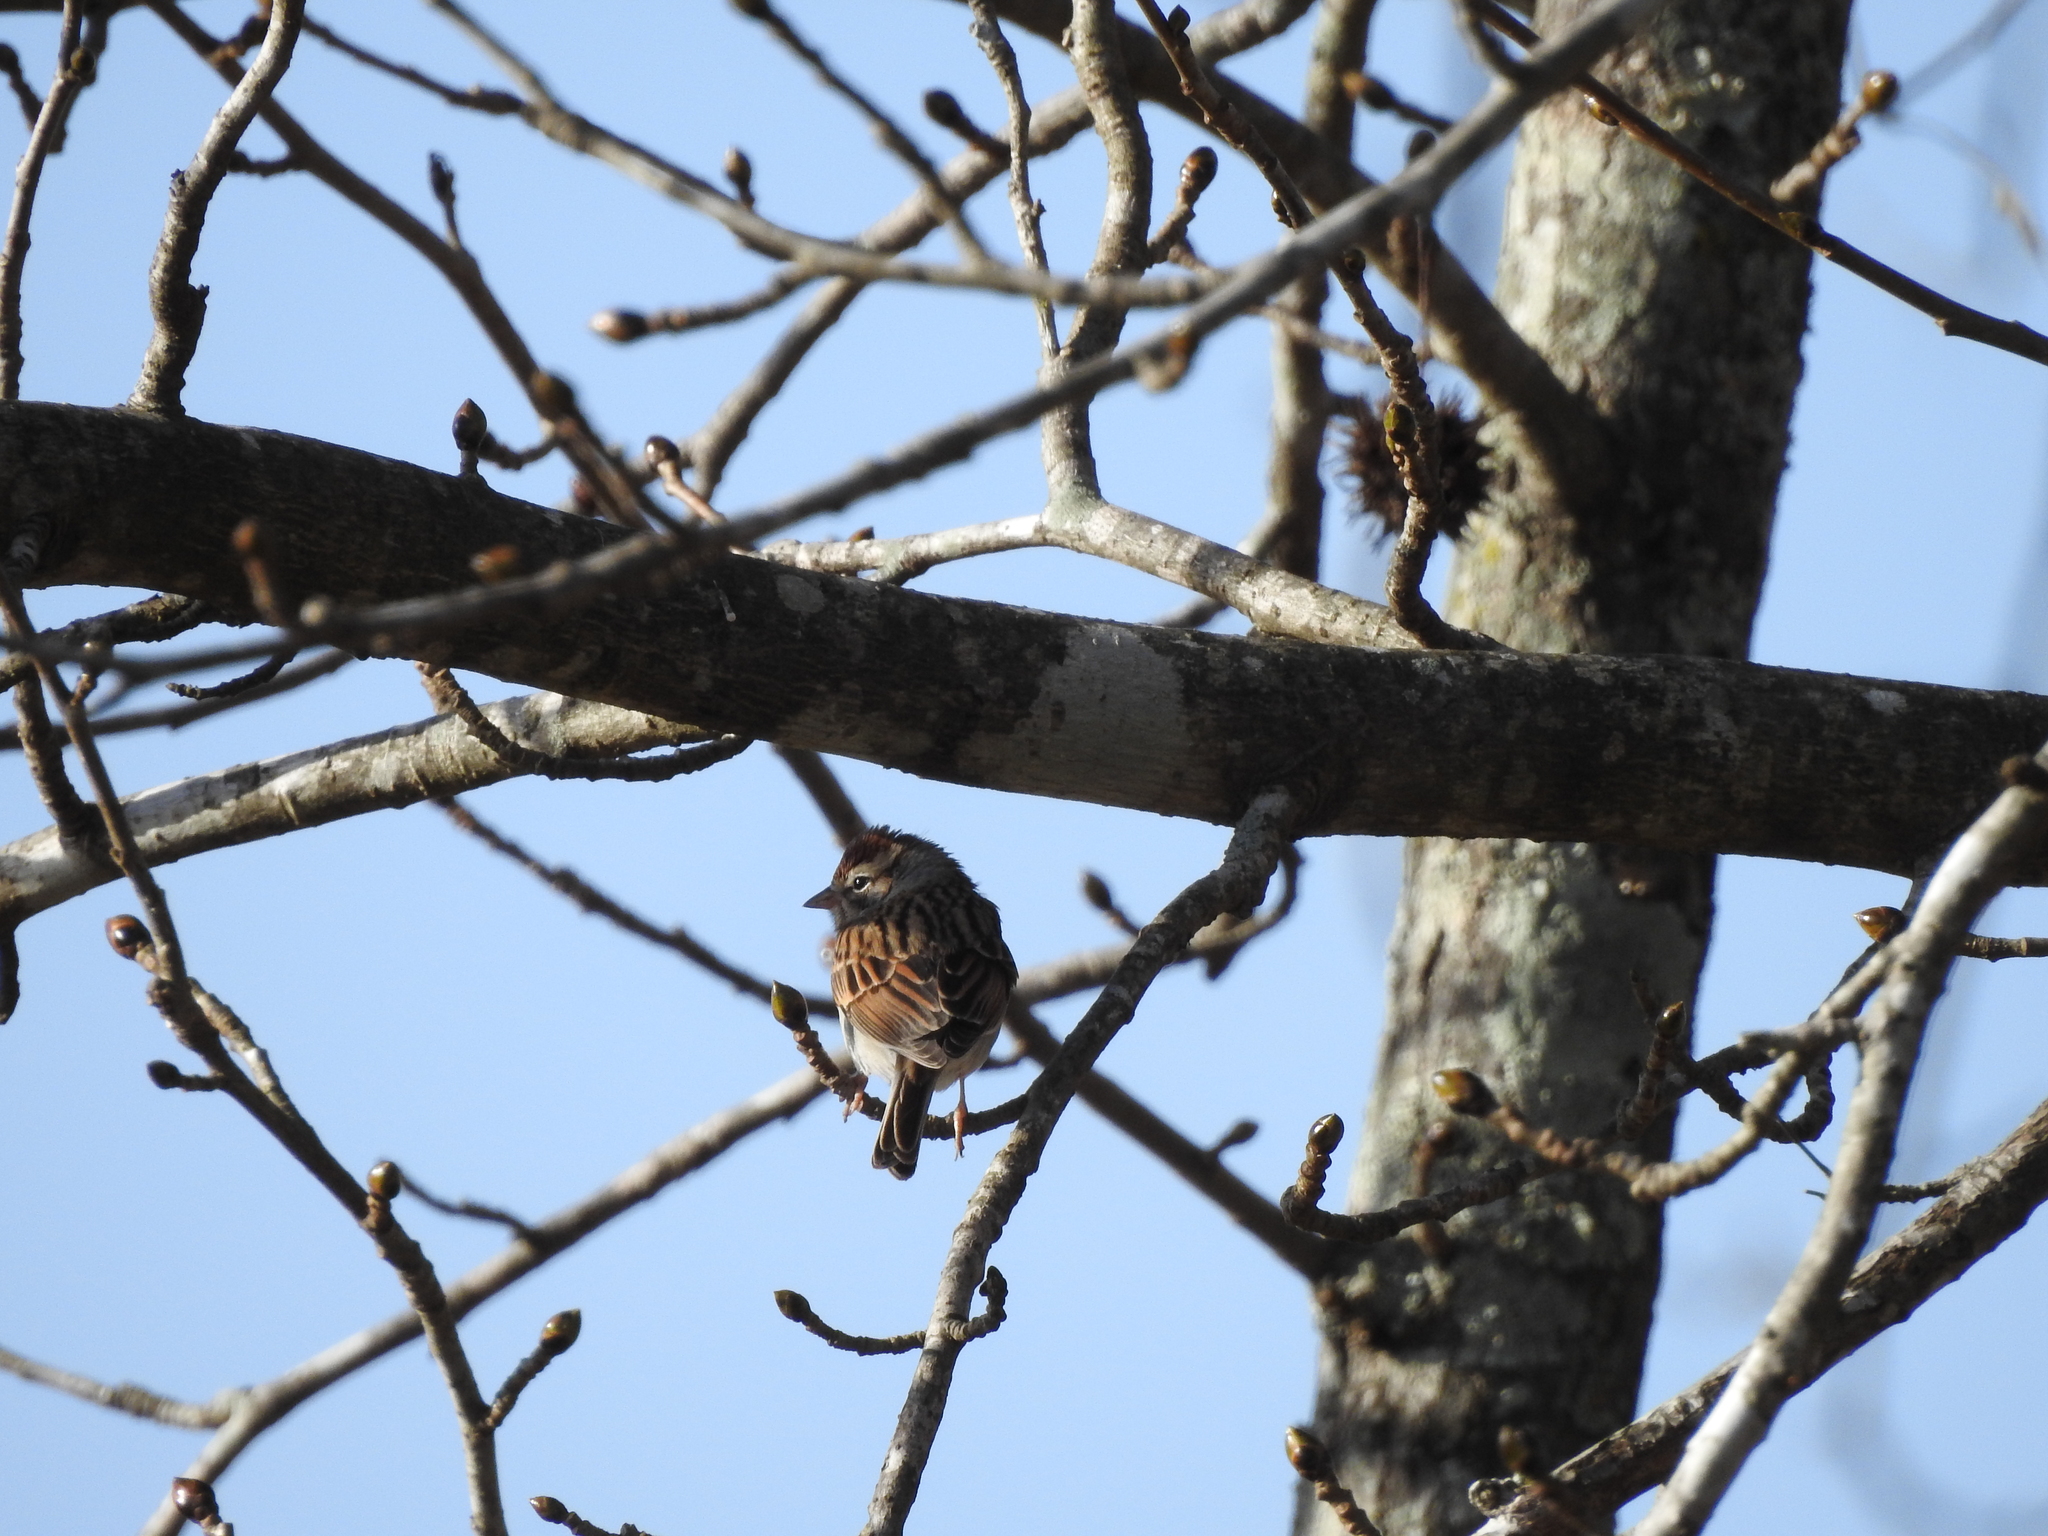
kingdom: Animalia
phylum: Chordata
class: Aves
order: Passeriformes
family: Passerellidae
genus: Spizella
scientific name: Spizella passerina
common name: Chipping sparrow
